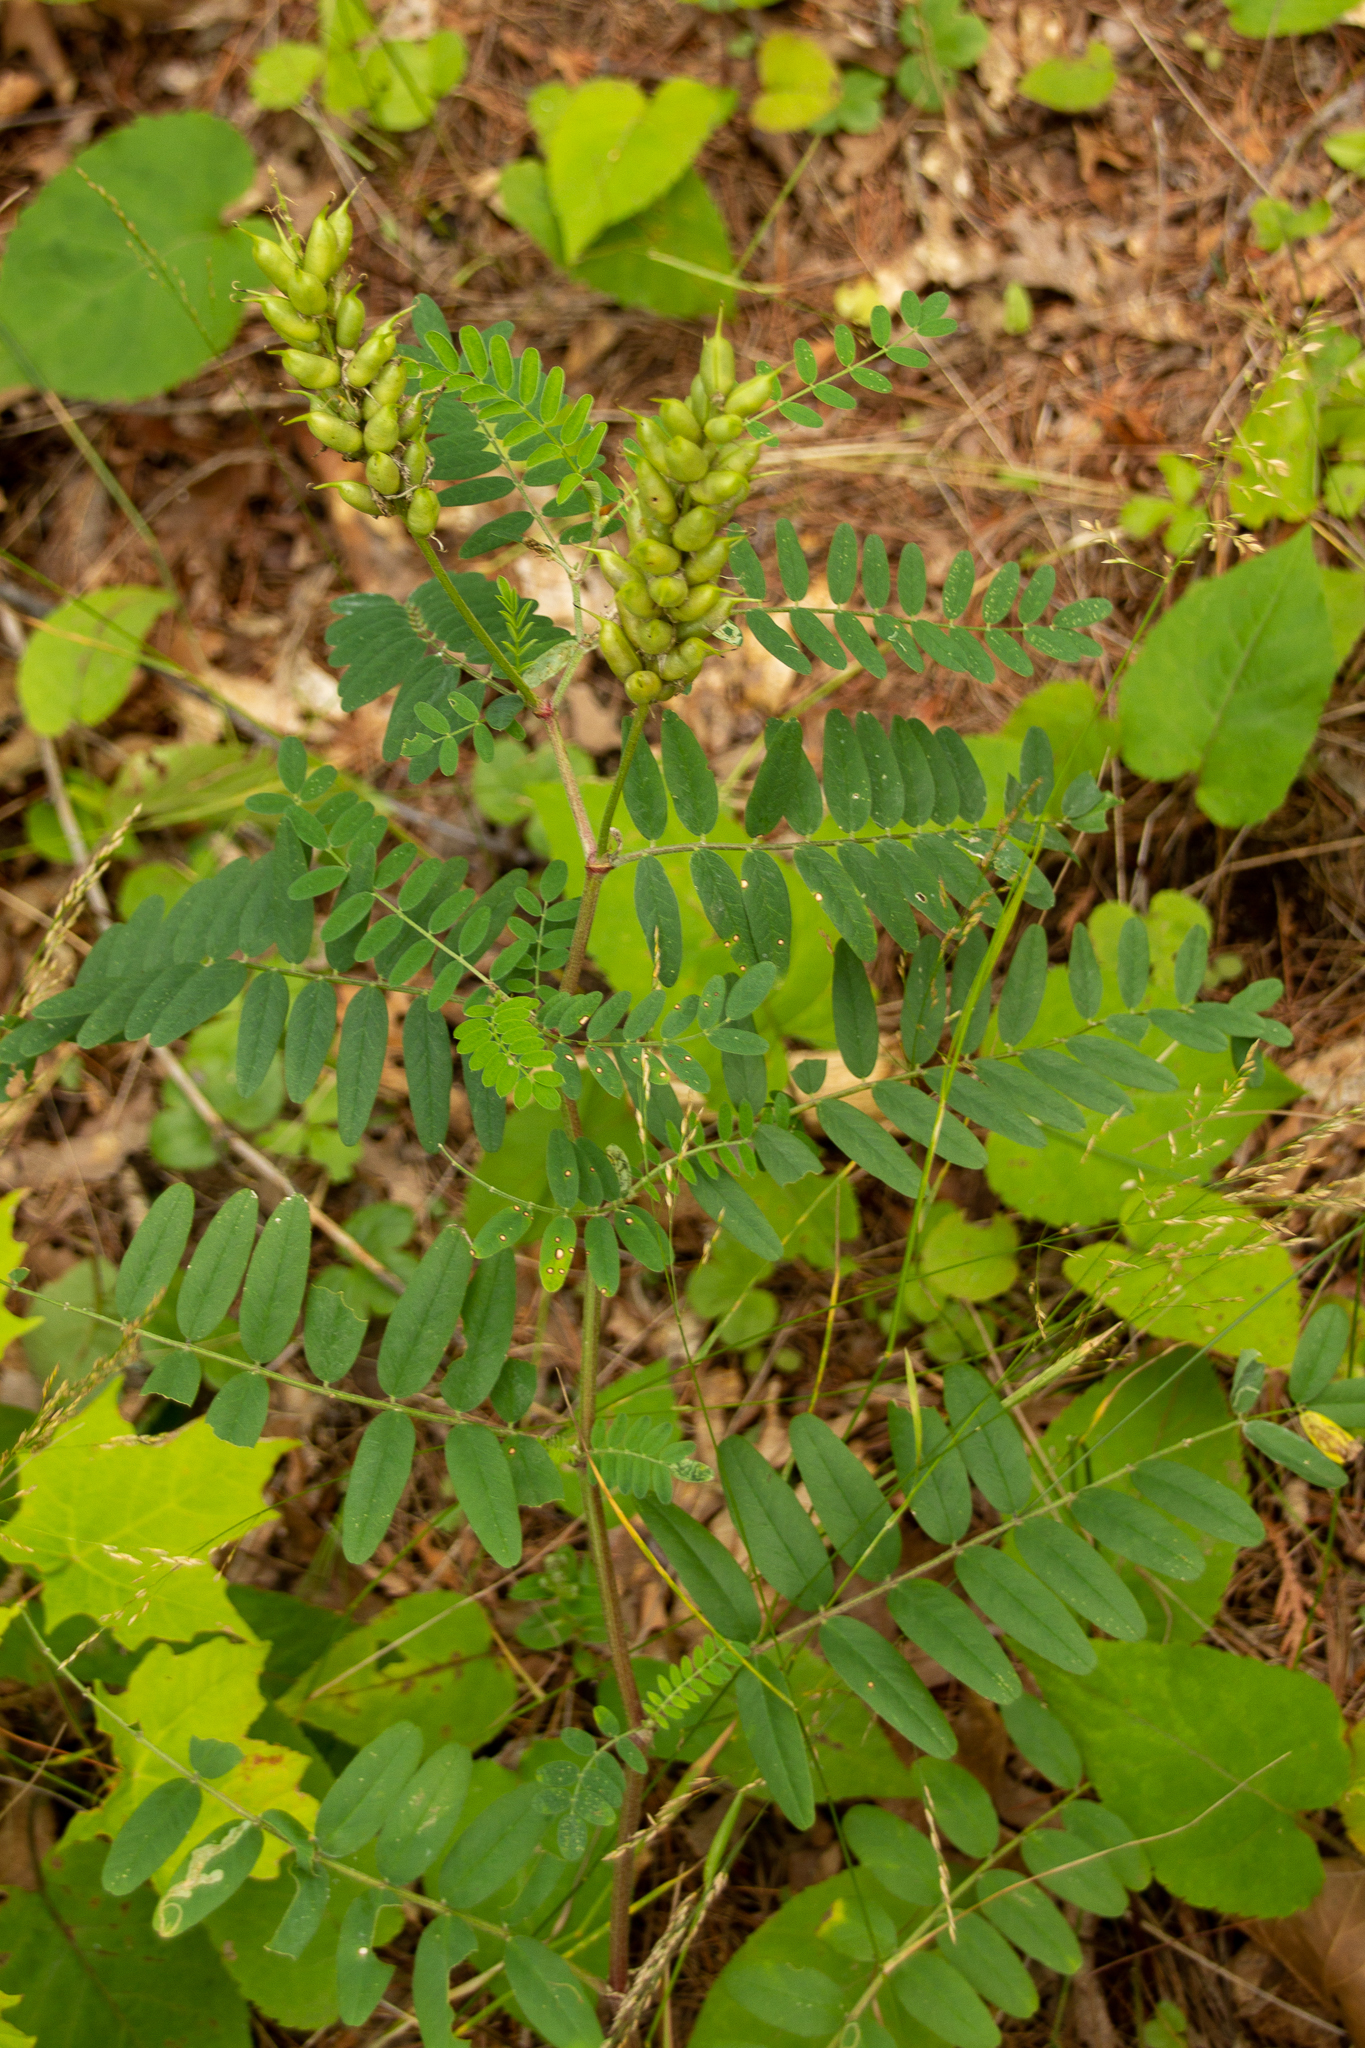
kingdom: Plantae
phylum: Tracheophyta
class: Magnoliopsida
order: Fabales
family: Fabaceae
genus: Astragalus
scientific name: Astragalus canadensis
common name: Canada milk-vetch
